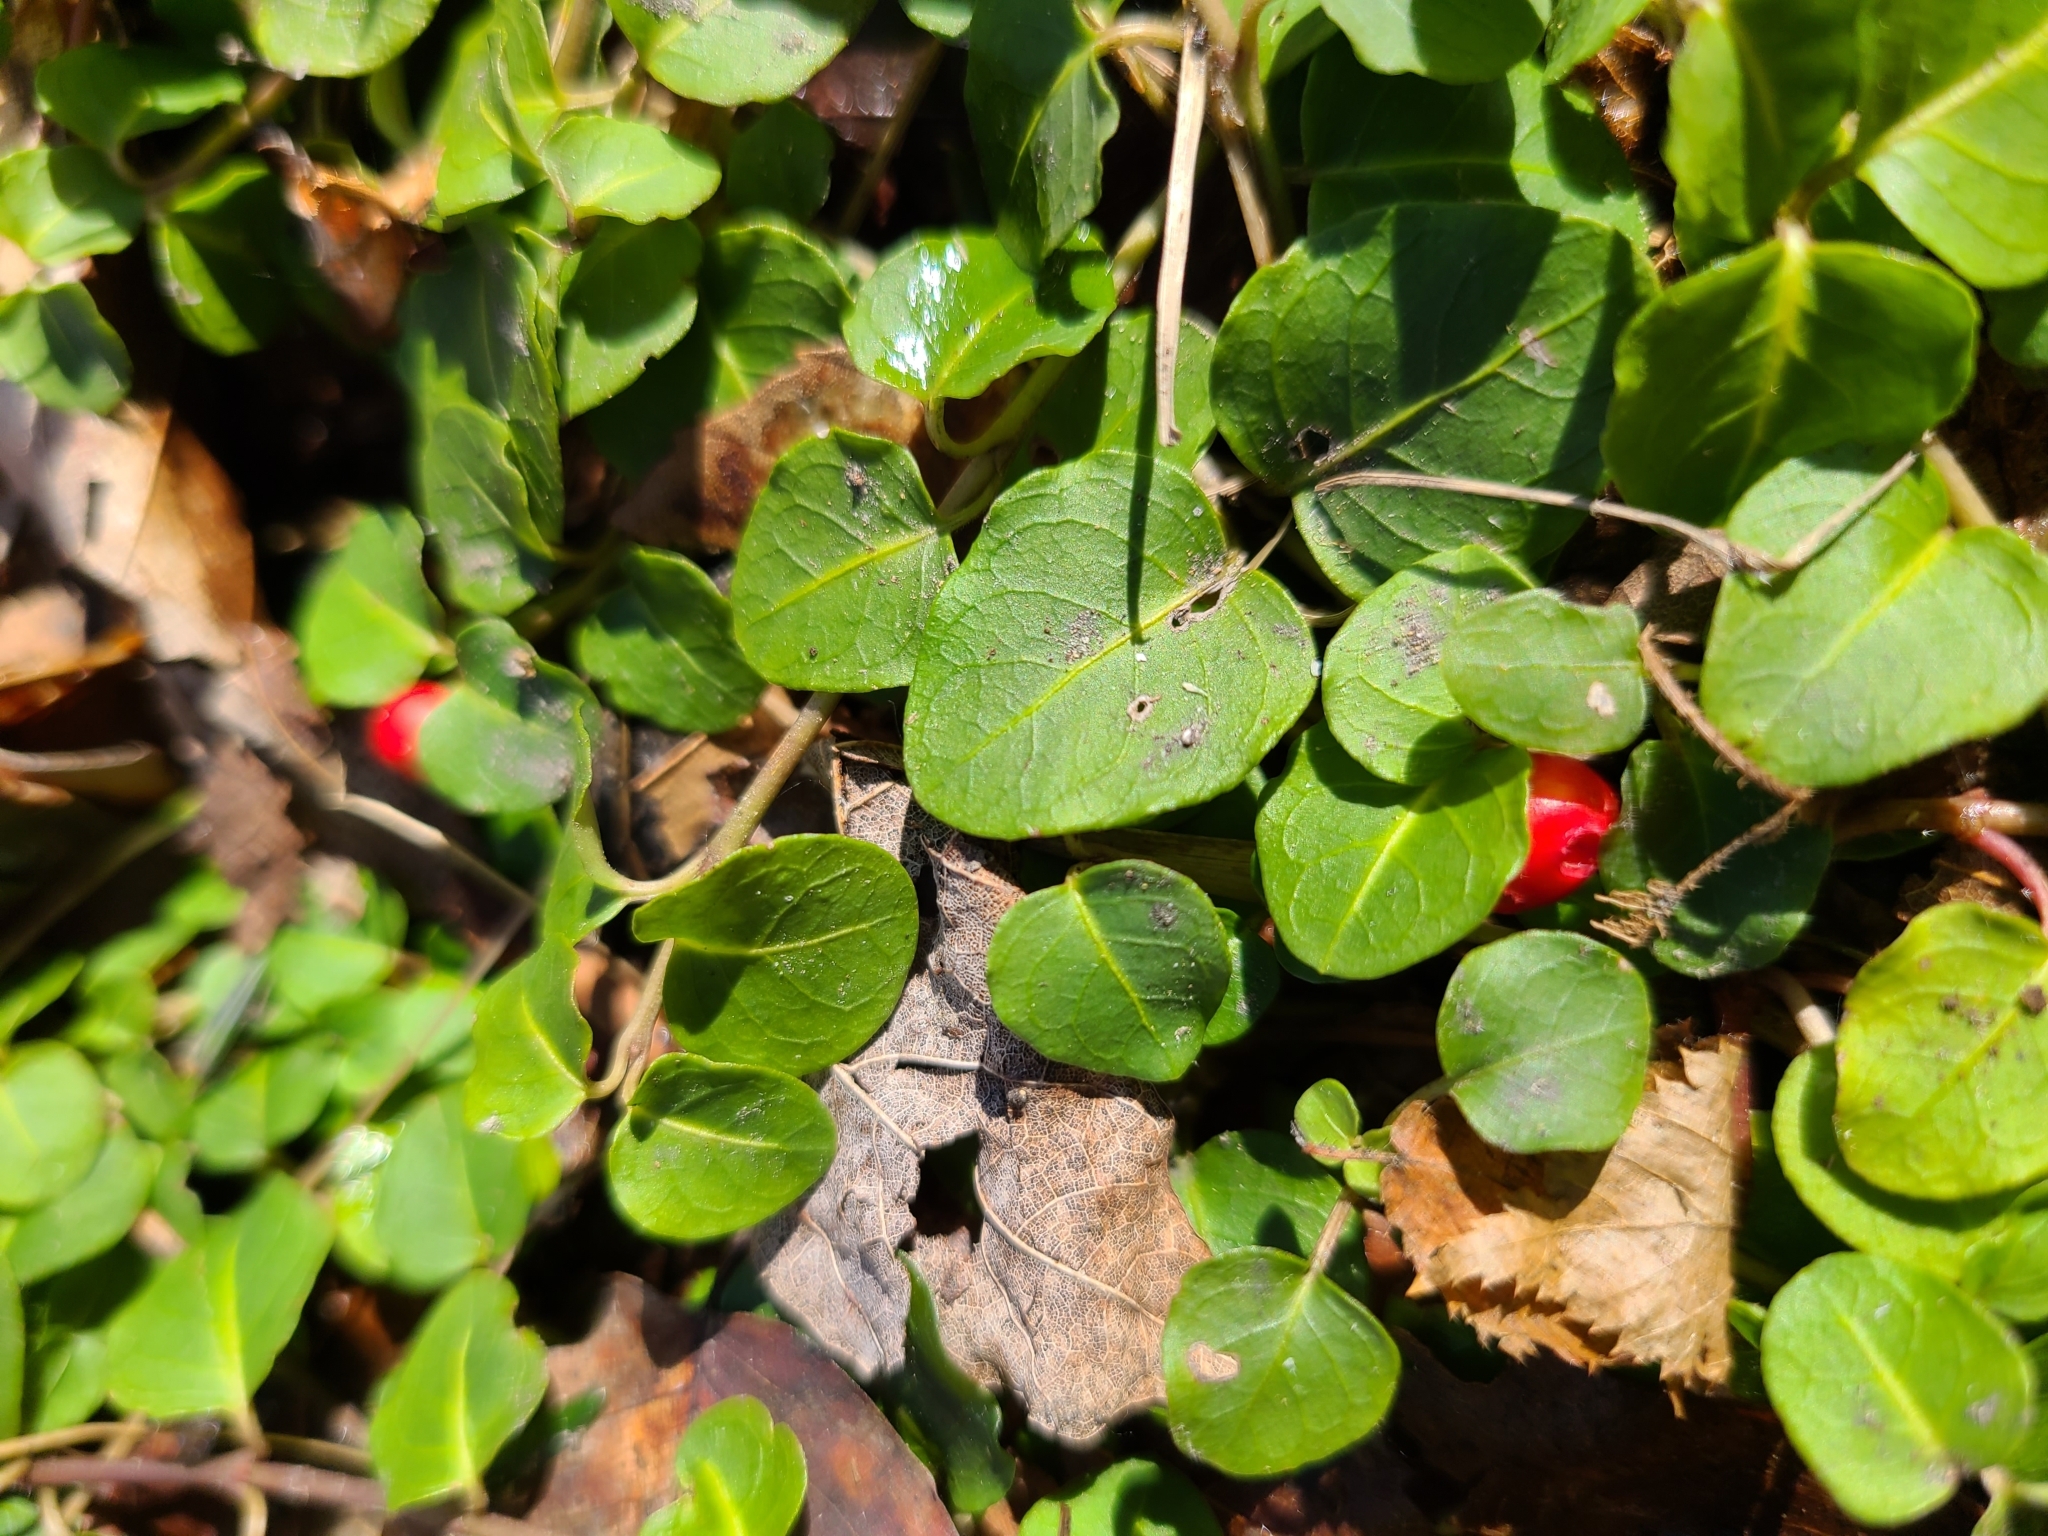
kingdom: Plantae
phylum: Tracheophyta
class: Magnoliopsida
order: Gentianales
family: Rubiaceae
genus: Mitchella
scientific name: Mitchella repens
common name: Partridge-berry
